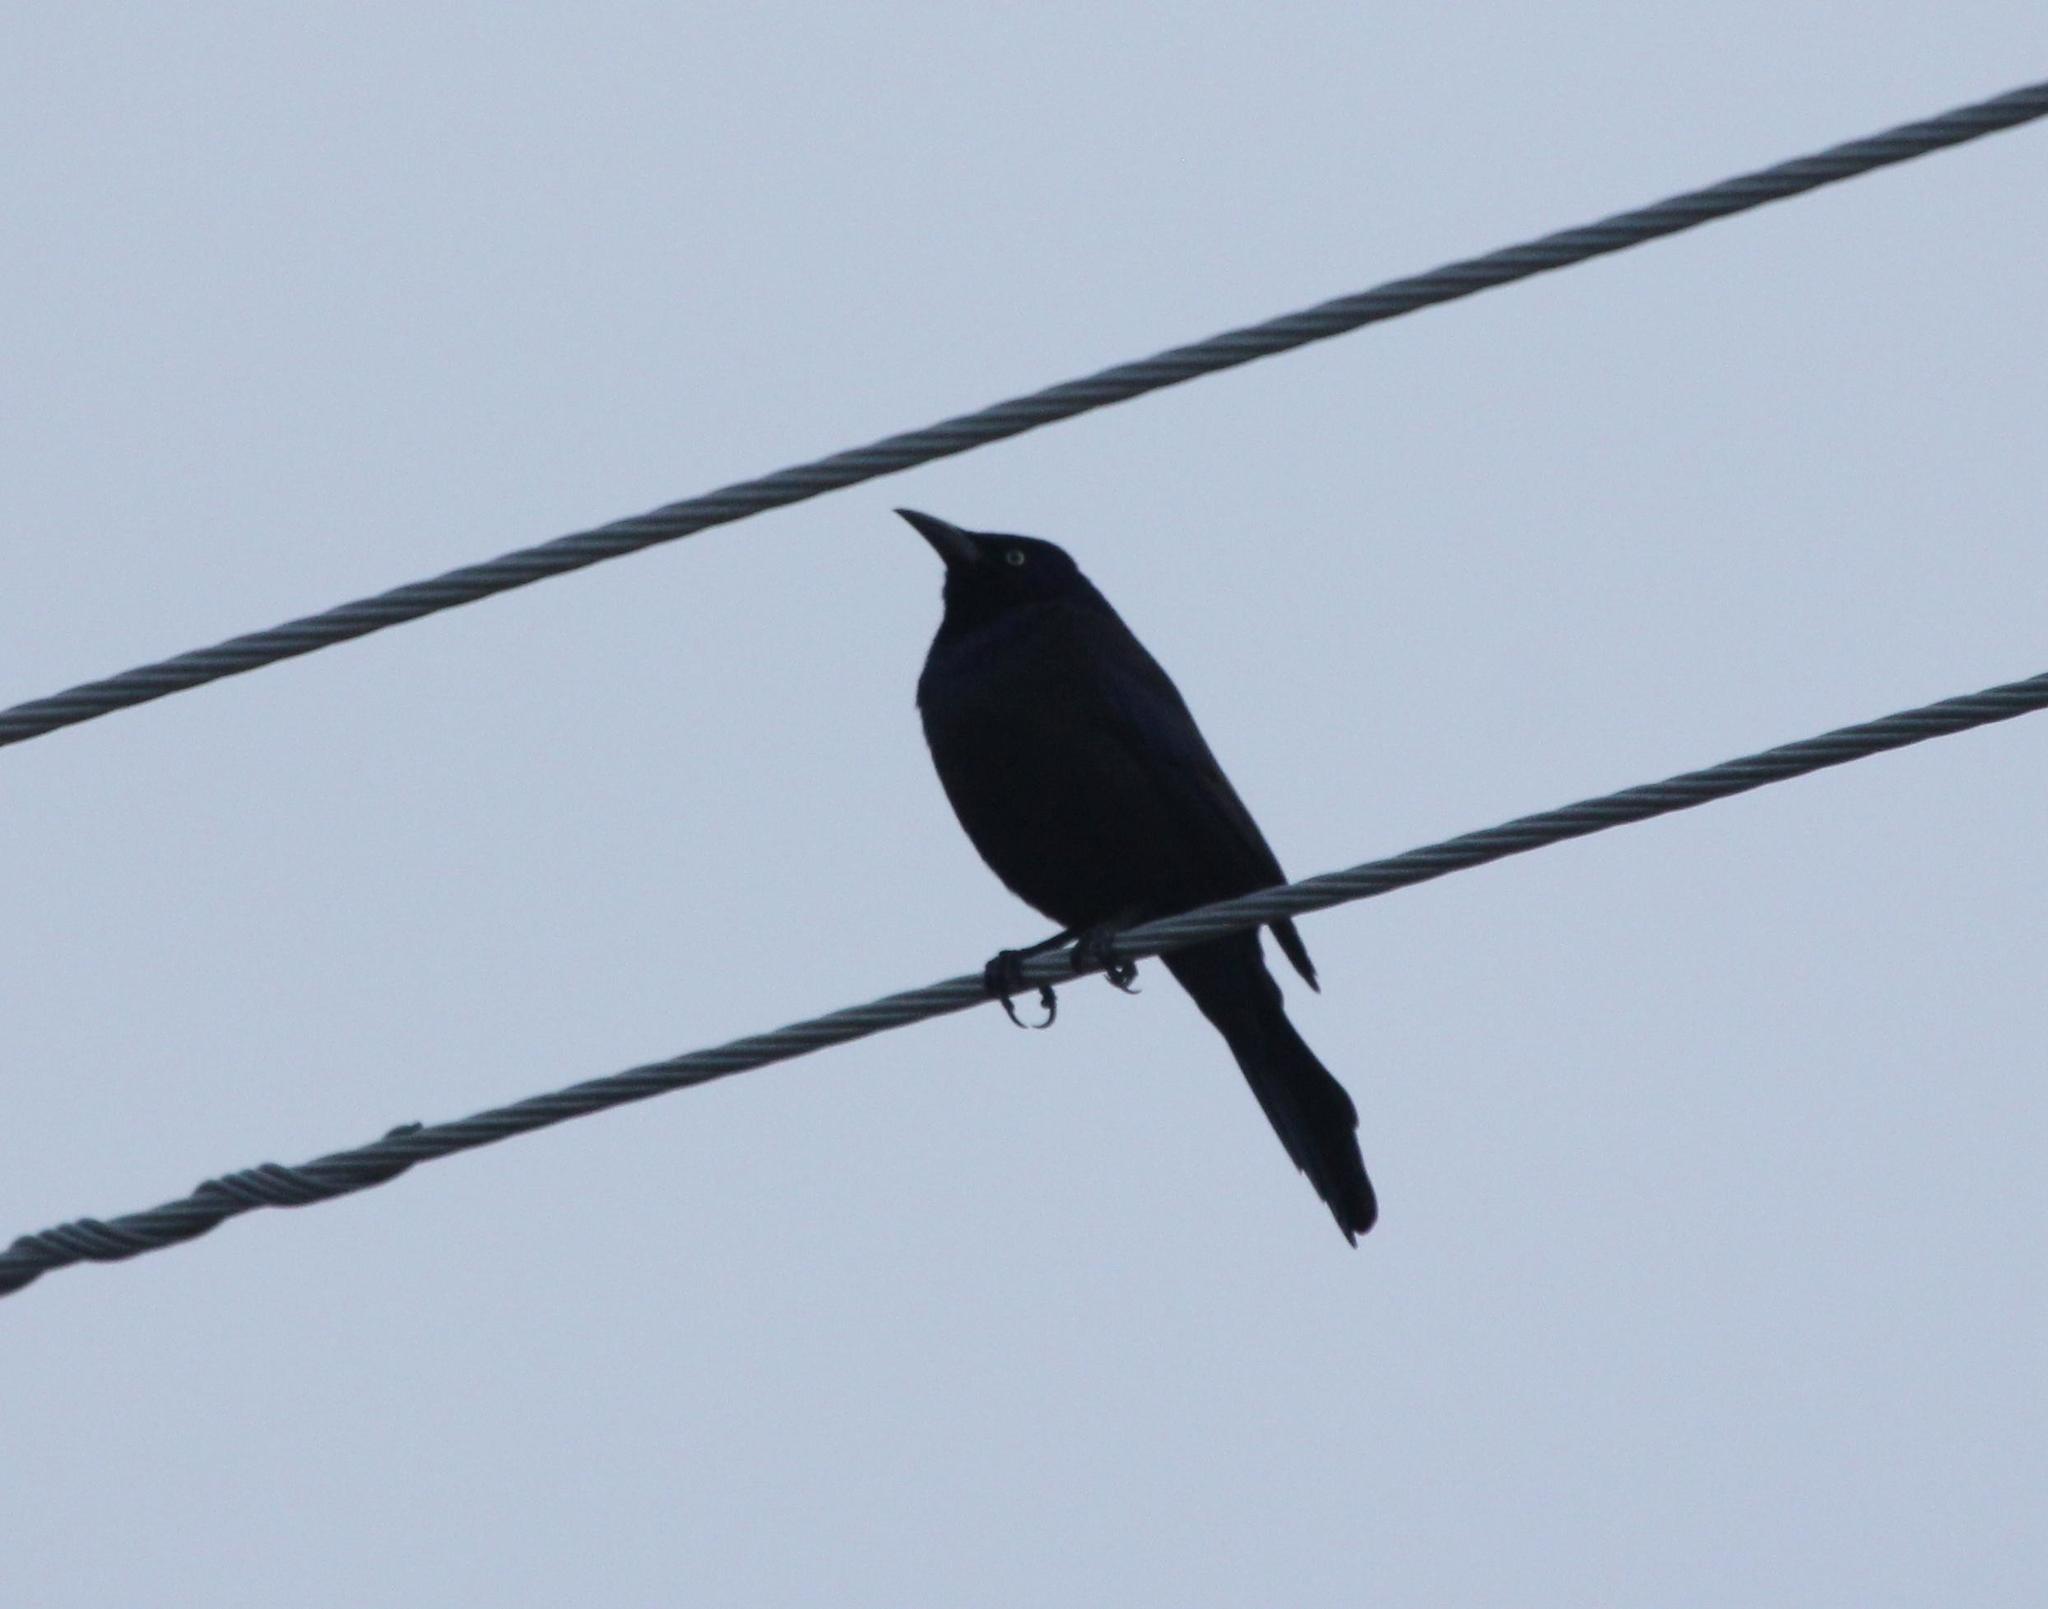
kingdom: Animalia
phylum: Chordata
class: Aves
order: Passeriformes
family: Icteridae
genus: Quiscalus
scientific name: Quiscalus quiscula
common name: Common grackle
